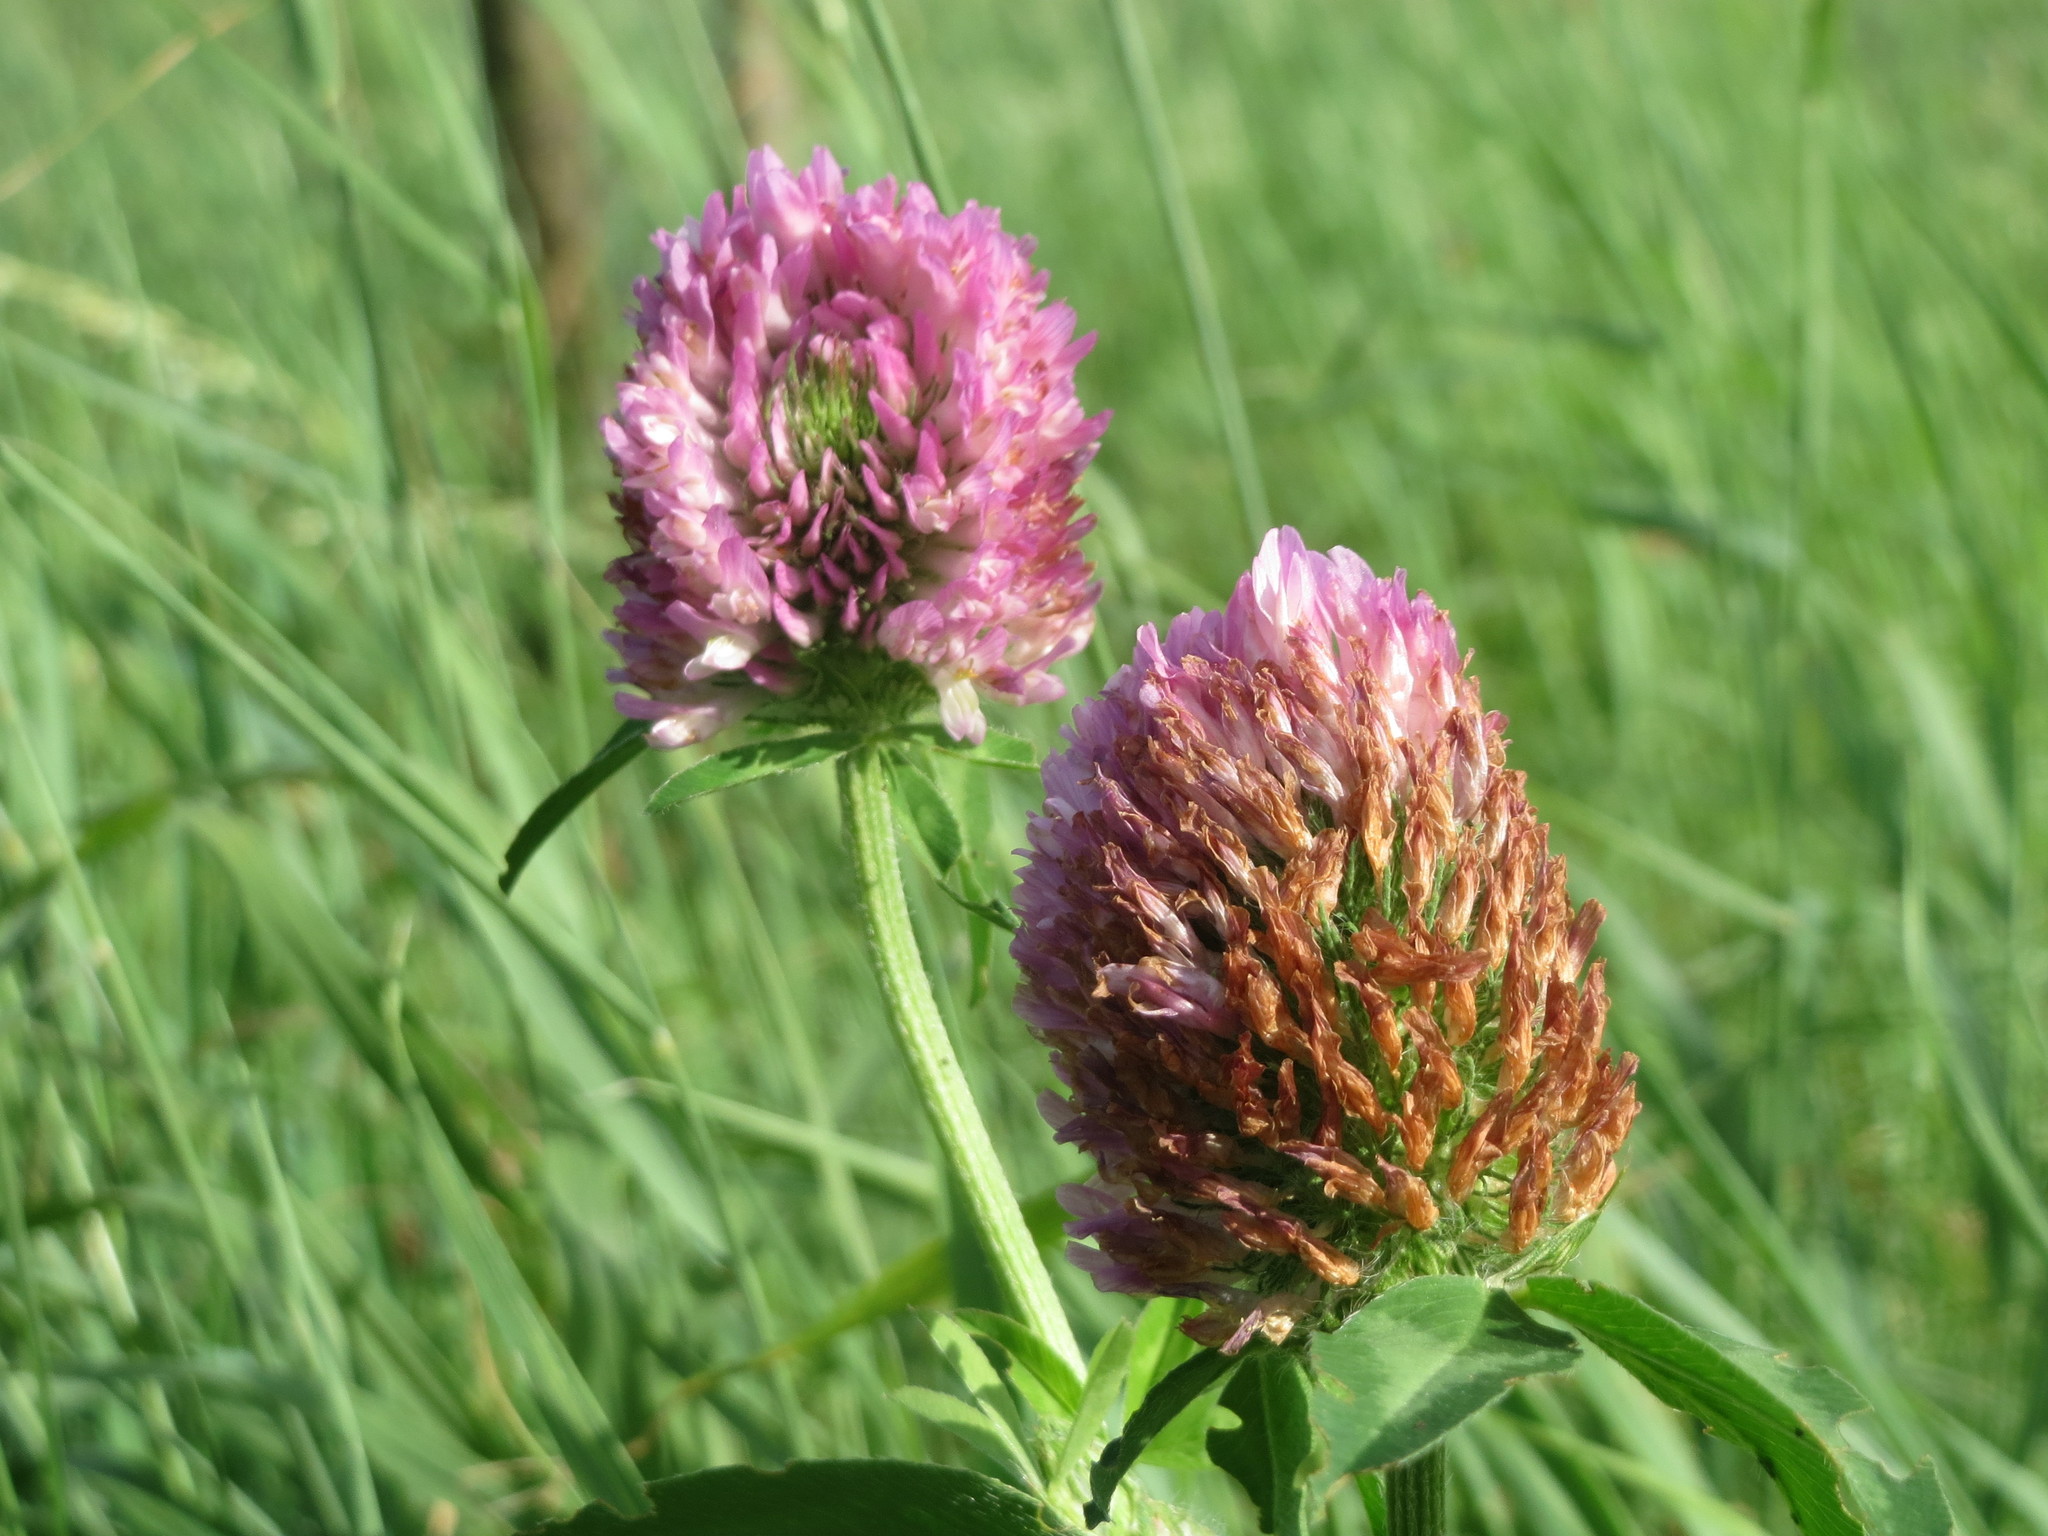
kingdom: Plantae
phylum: Tracheophyta
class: Magnoliopsida
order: Fabales
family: Fabaceae
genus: Trifolium
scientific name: Trifolium pratense
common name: Red clover
